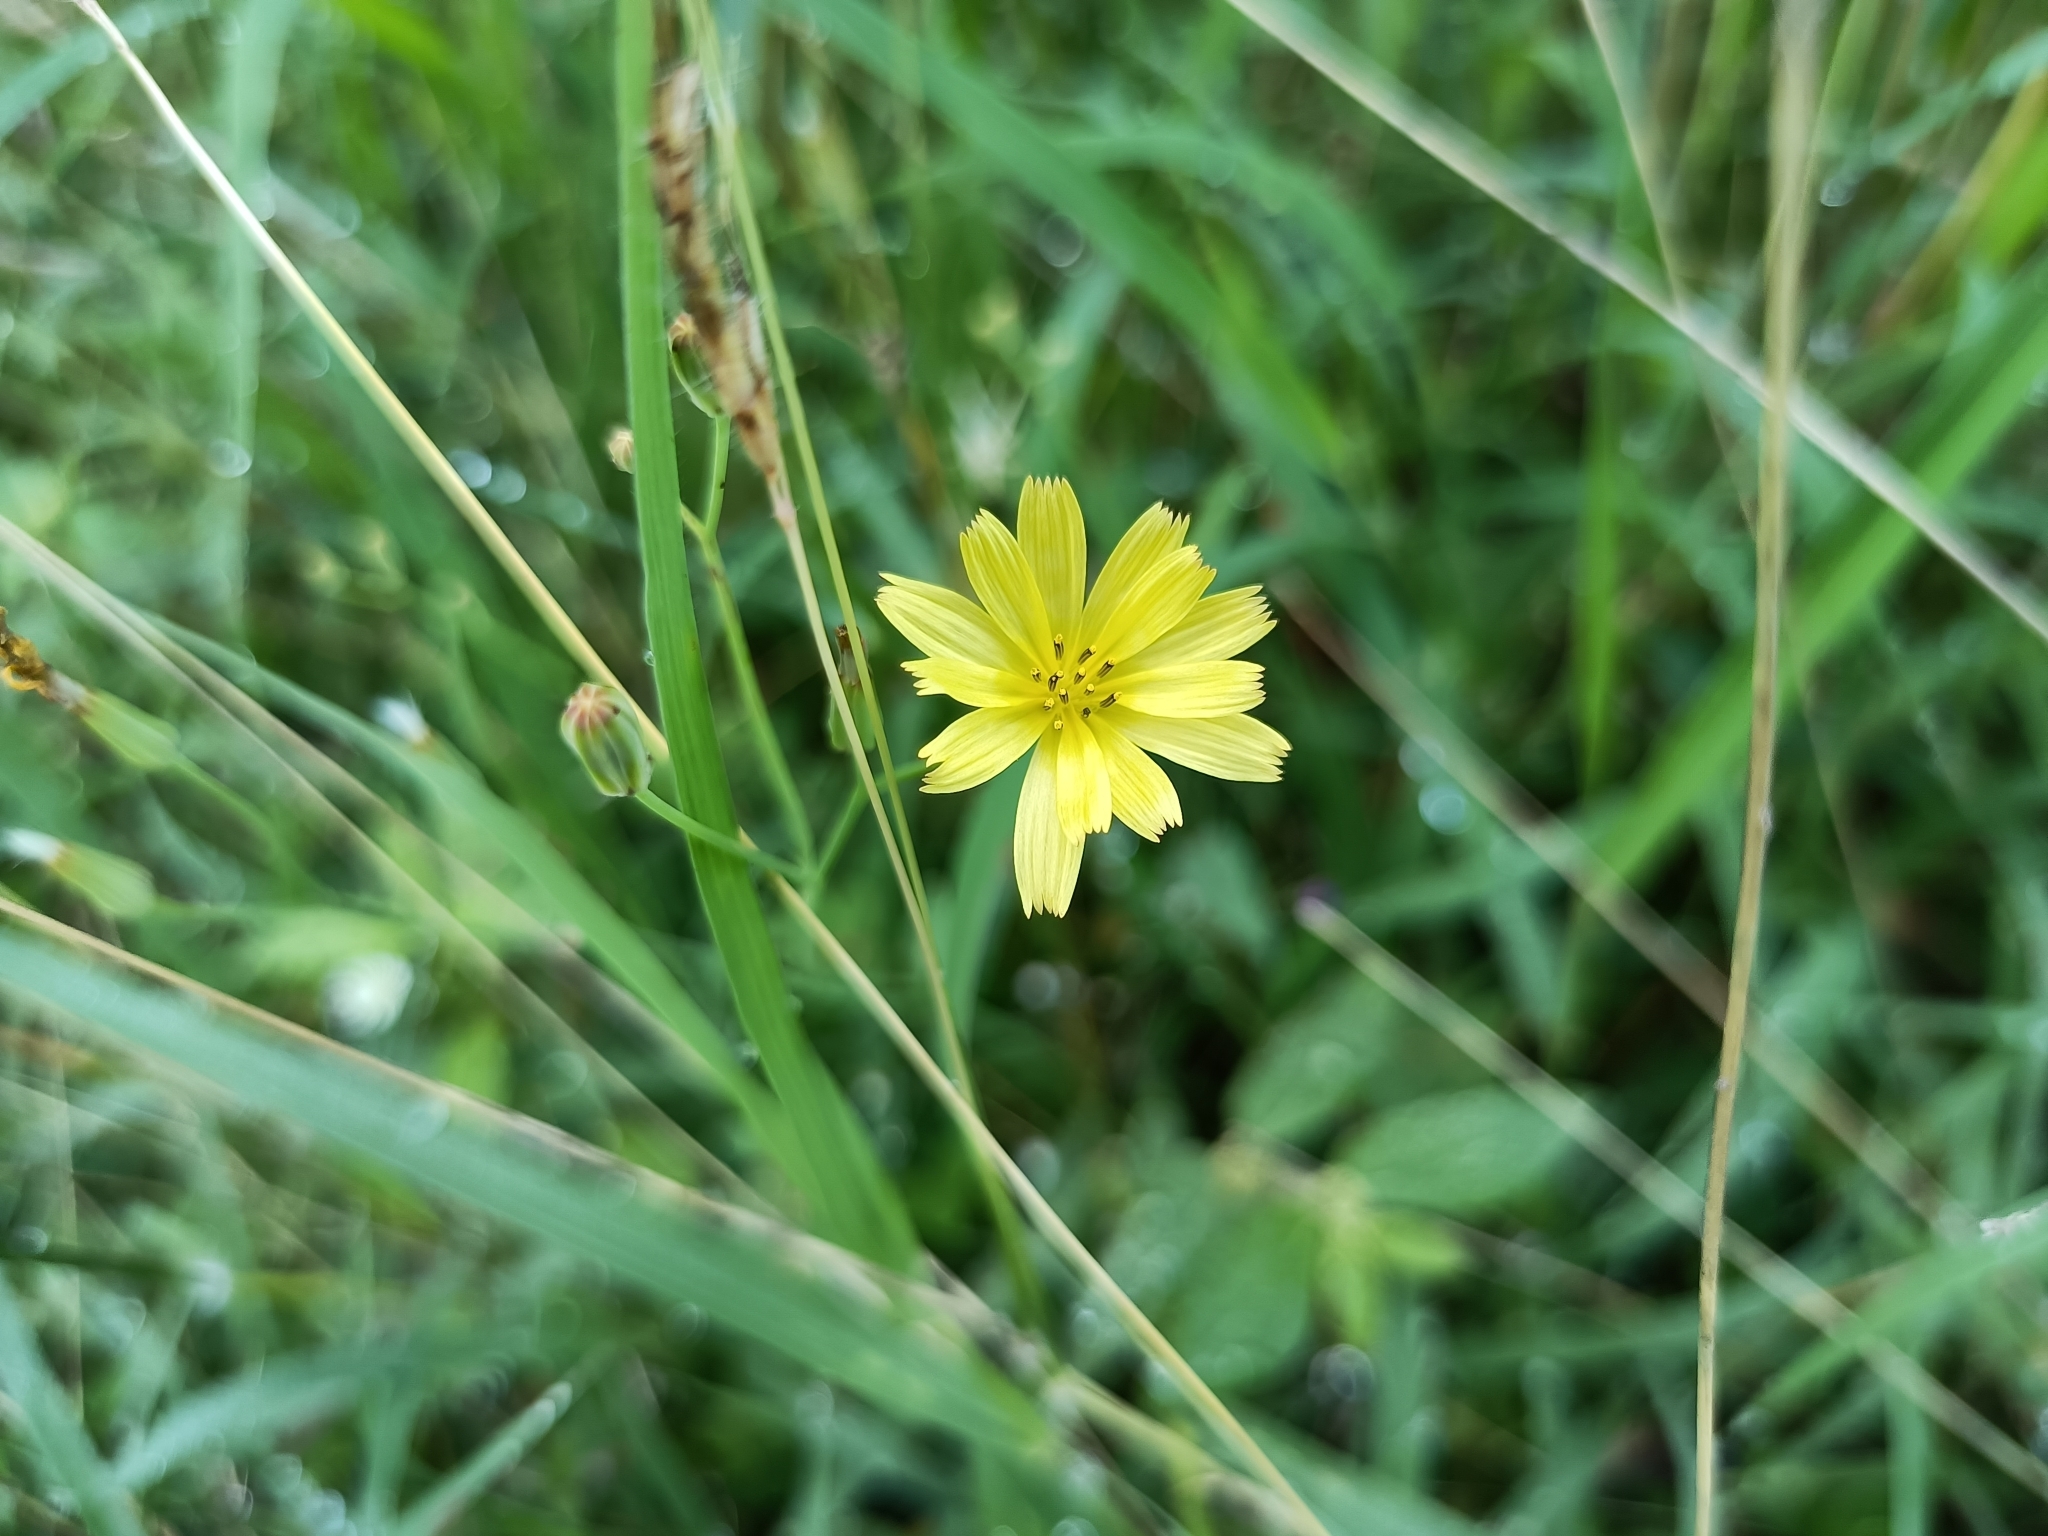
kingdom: Plantae
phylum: Tracheophyta
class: Magnoliopsida
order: Asterales
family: Asteraceae
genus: Ixeris
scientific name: Ixeris chinensis
